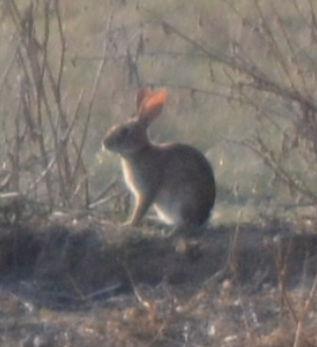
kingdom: Animalia
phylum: Chordata
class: Mammalia
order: Lagomorpha
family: Leporidae
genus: Oryctolagus
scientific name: Oryctolagus cuniculus
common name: European rabbit
